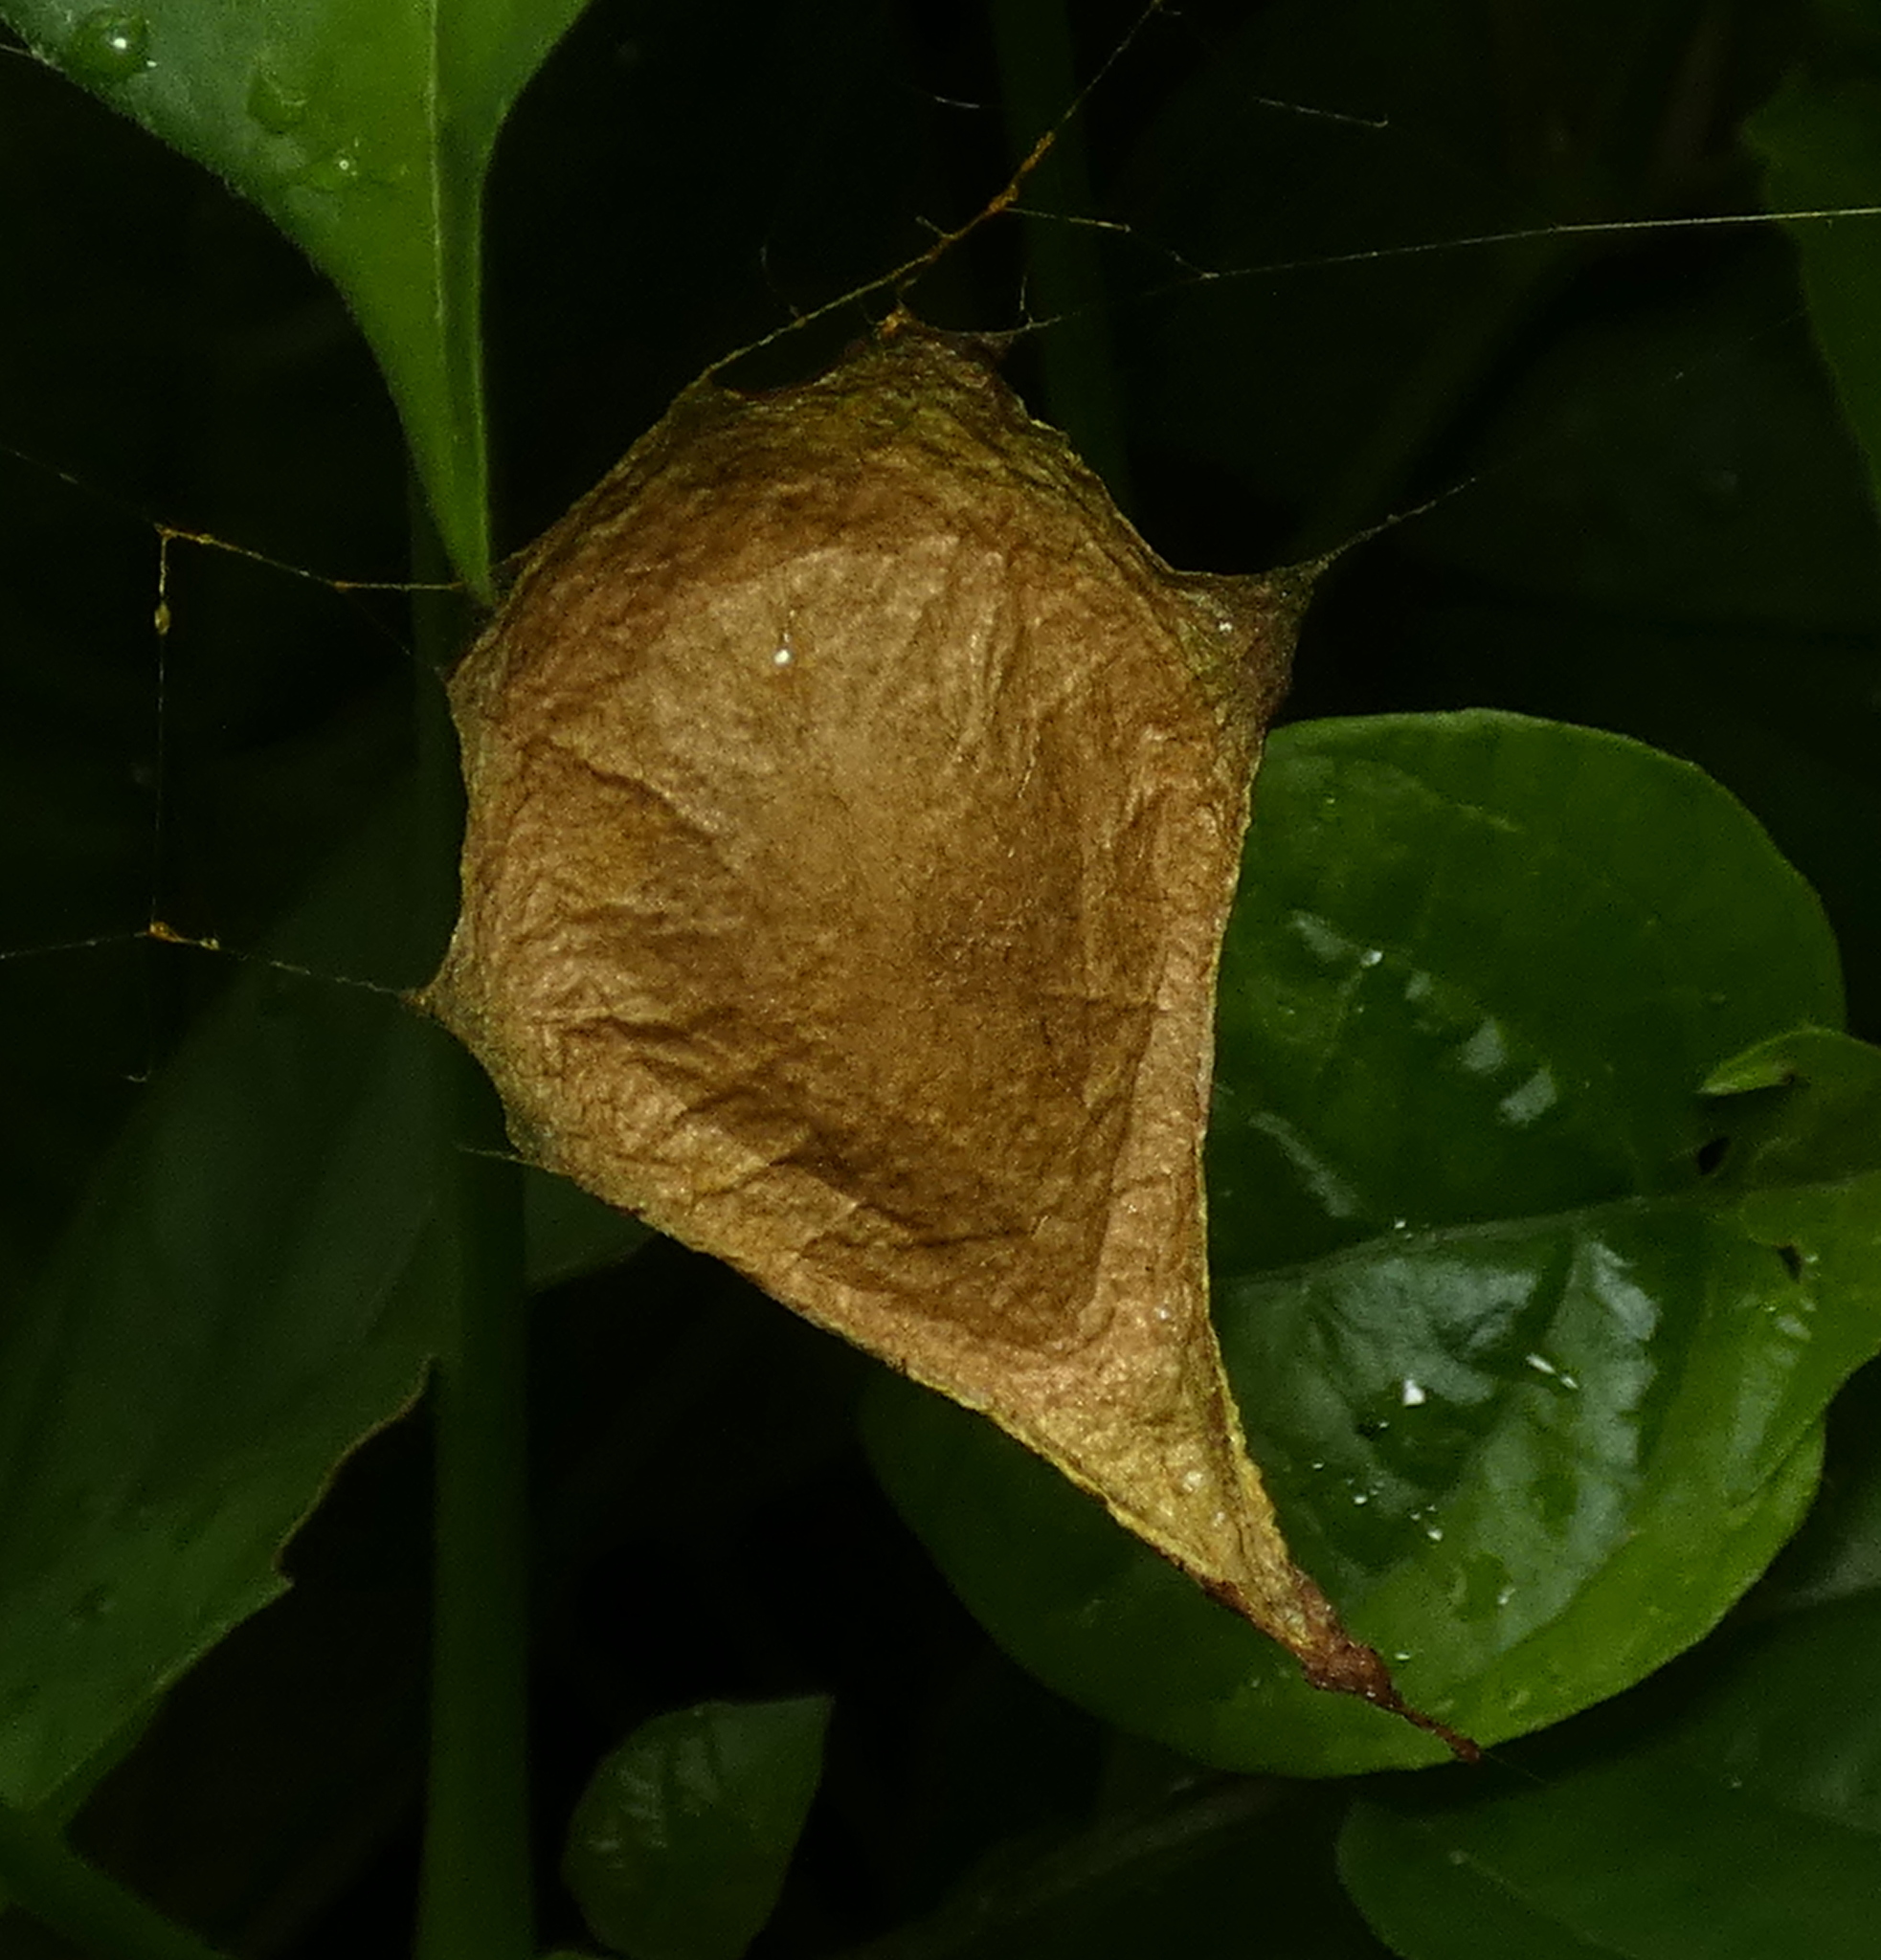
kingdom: Animalia
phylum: Arthropoda
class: Arachnida
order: Araneae
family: Araneidae
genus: Argiope
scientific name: Argiope argentata
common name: Orb weavers
